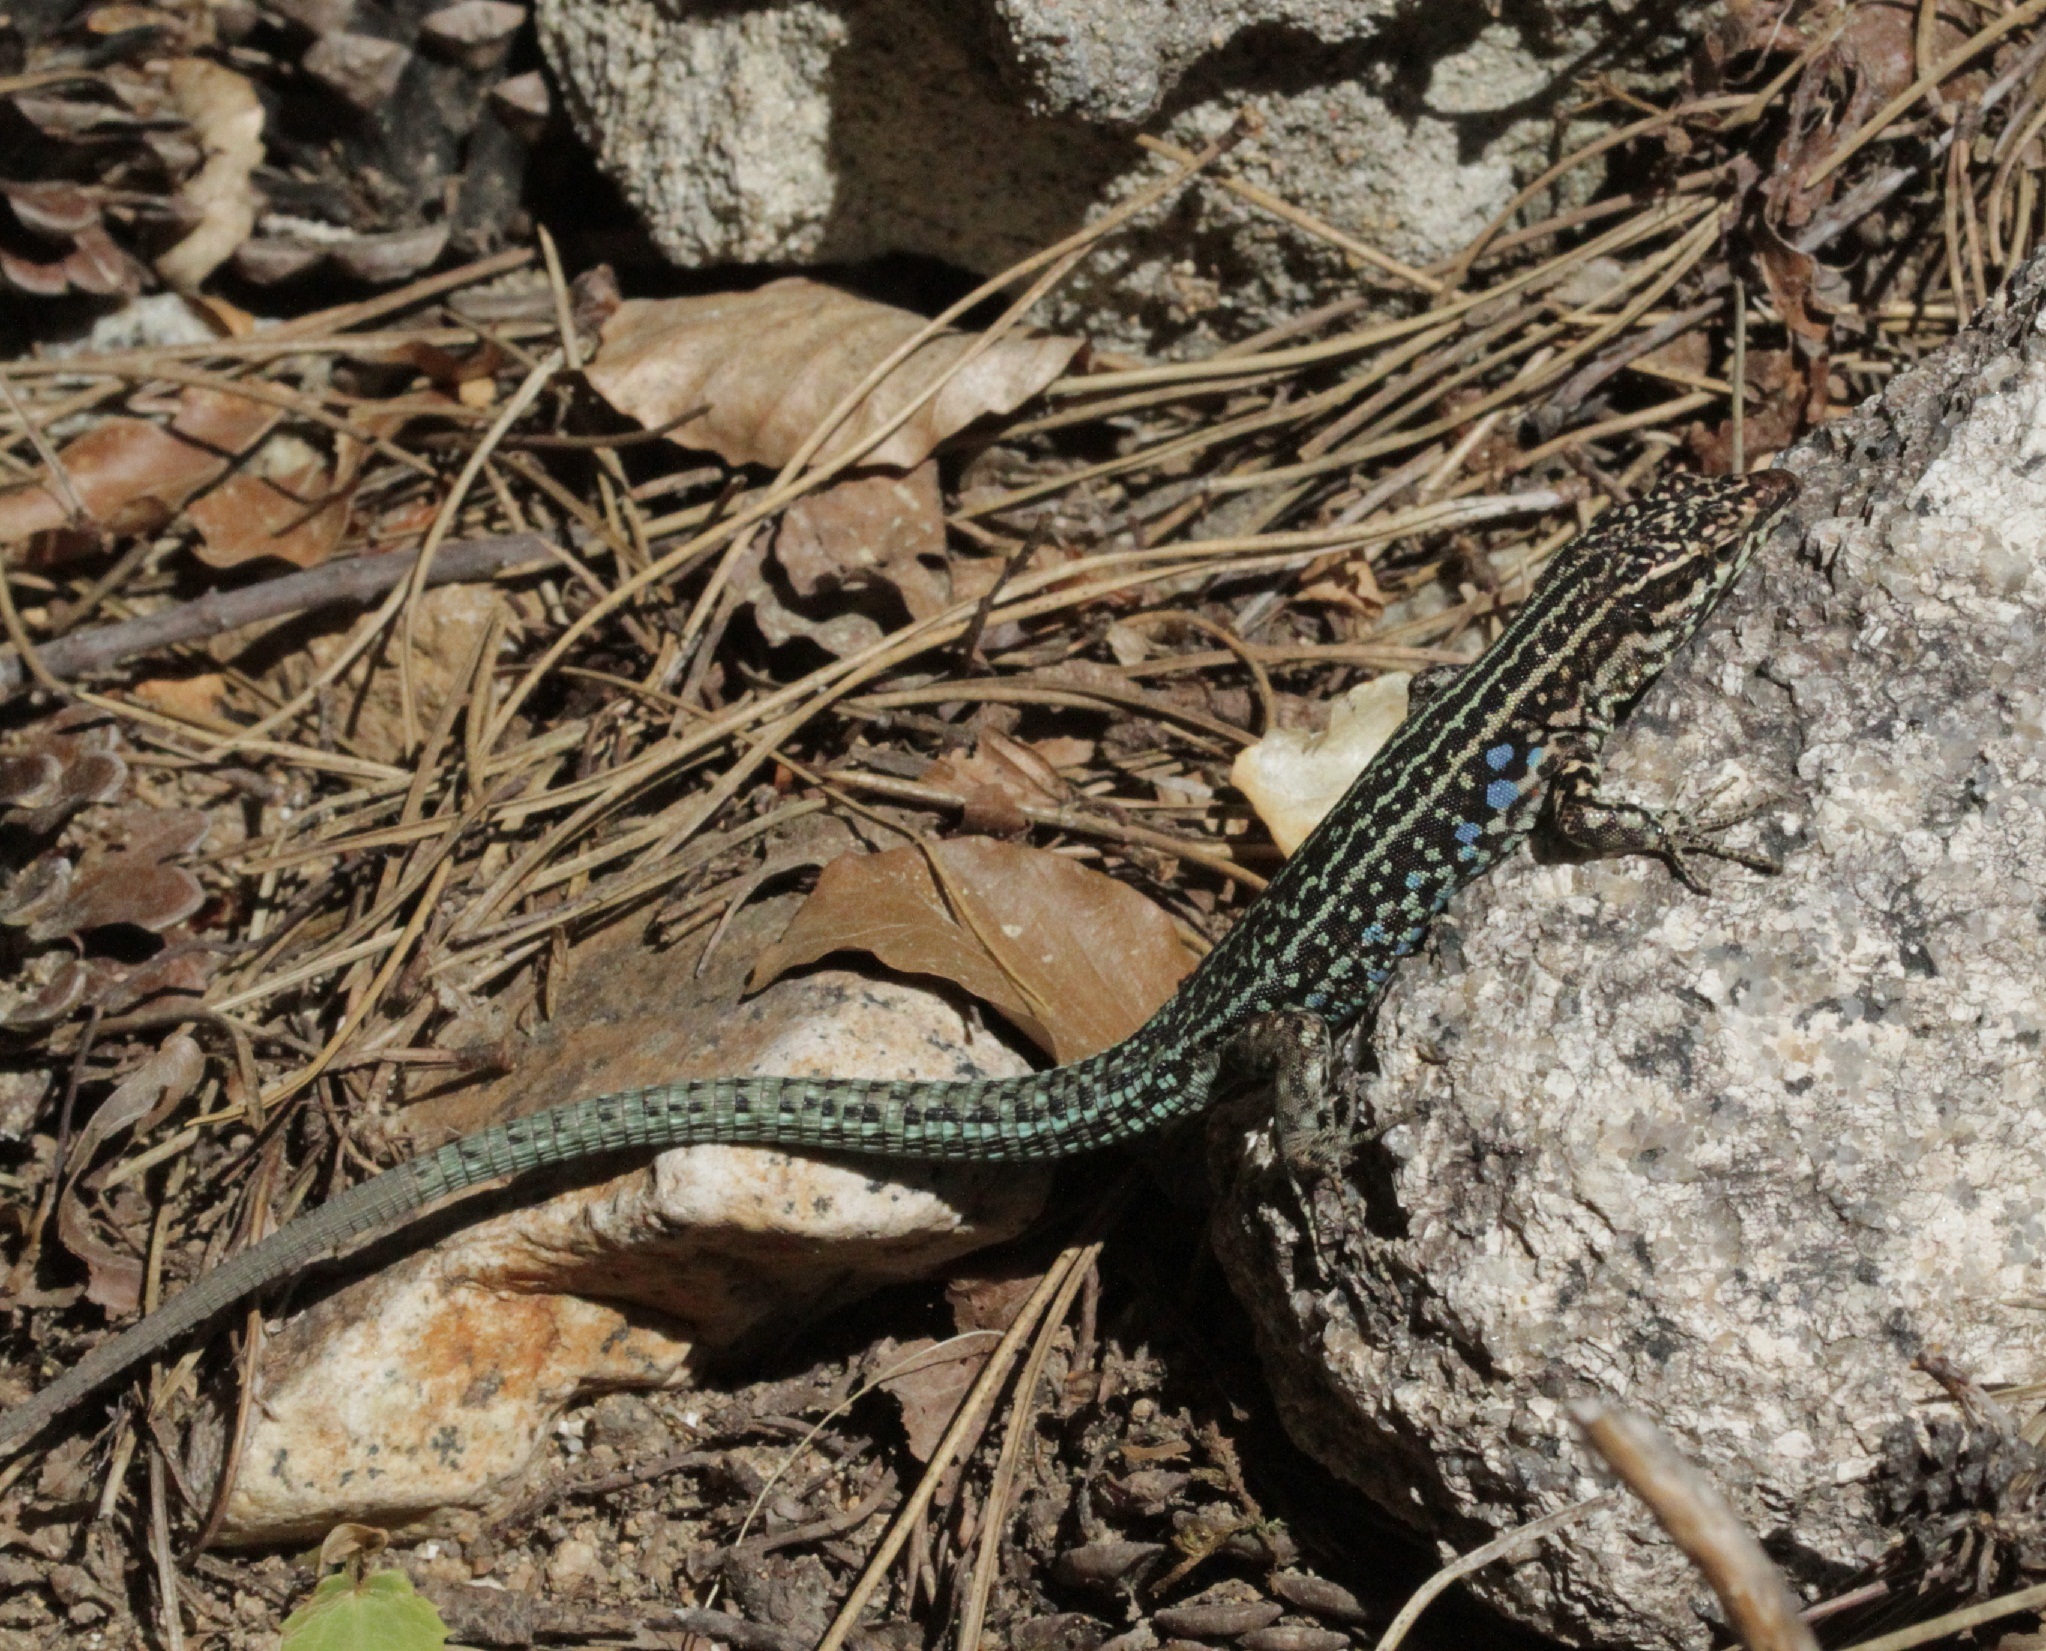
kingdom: Animalia
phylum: Chordata
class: Squamata
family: Lacertidae
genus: Podarcis
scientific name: Podarcis tiliguerta
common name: Tyrrhenian wall lizard
